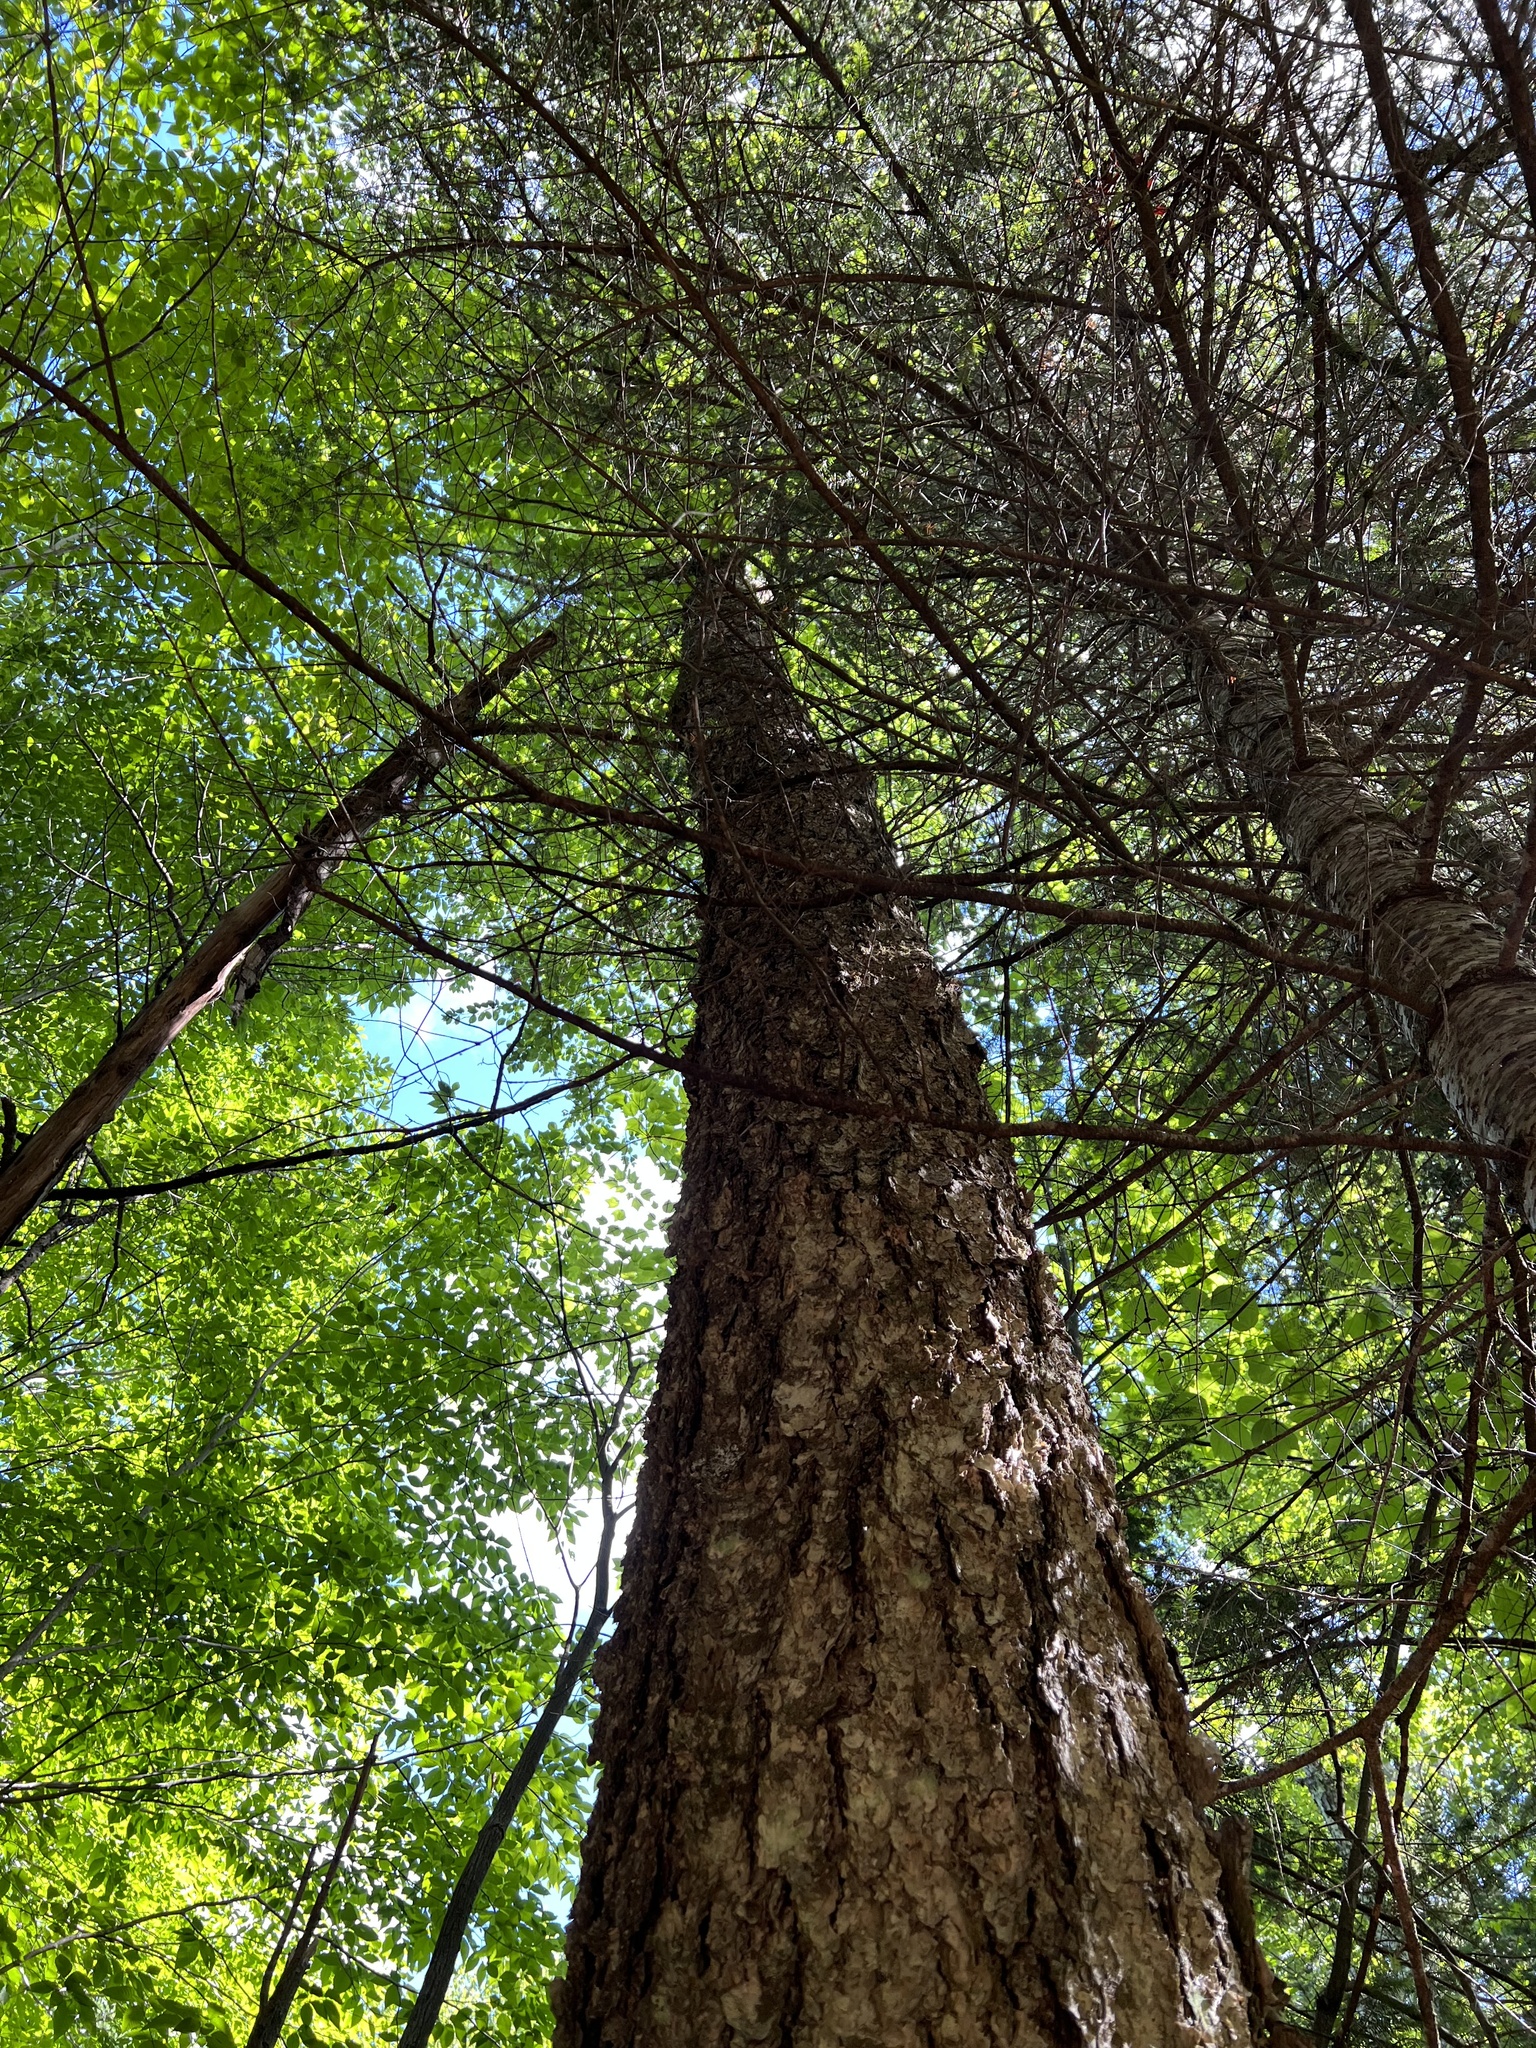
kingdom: Plantae
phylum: Tracheophyta
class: Magnoliopsida
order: Fagales
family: Betulaceae
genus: Betula
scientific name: Betula lenta
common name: Black birch
